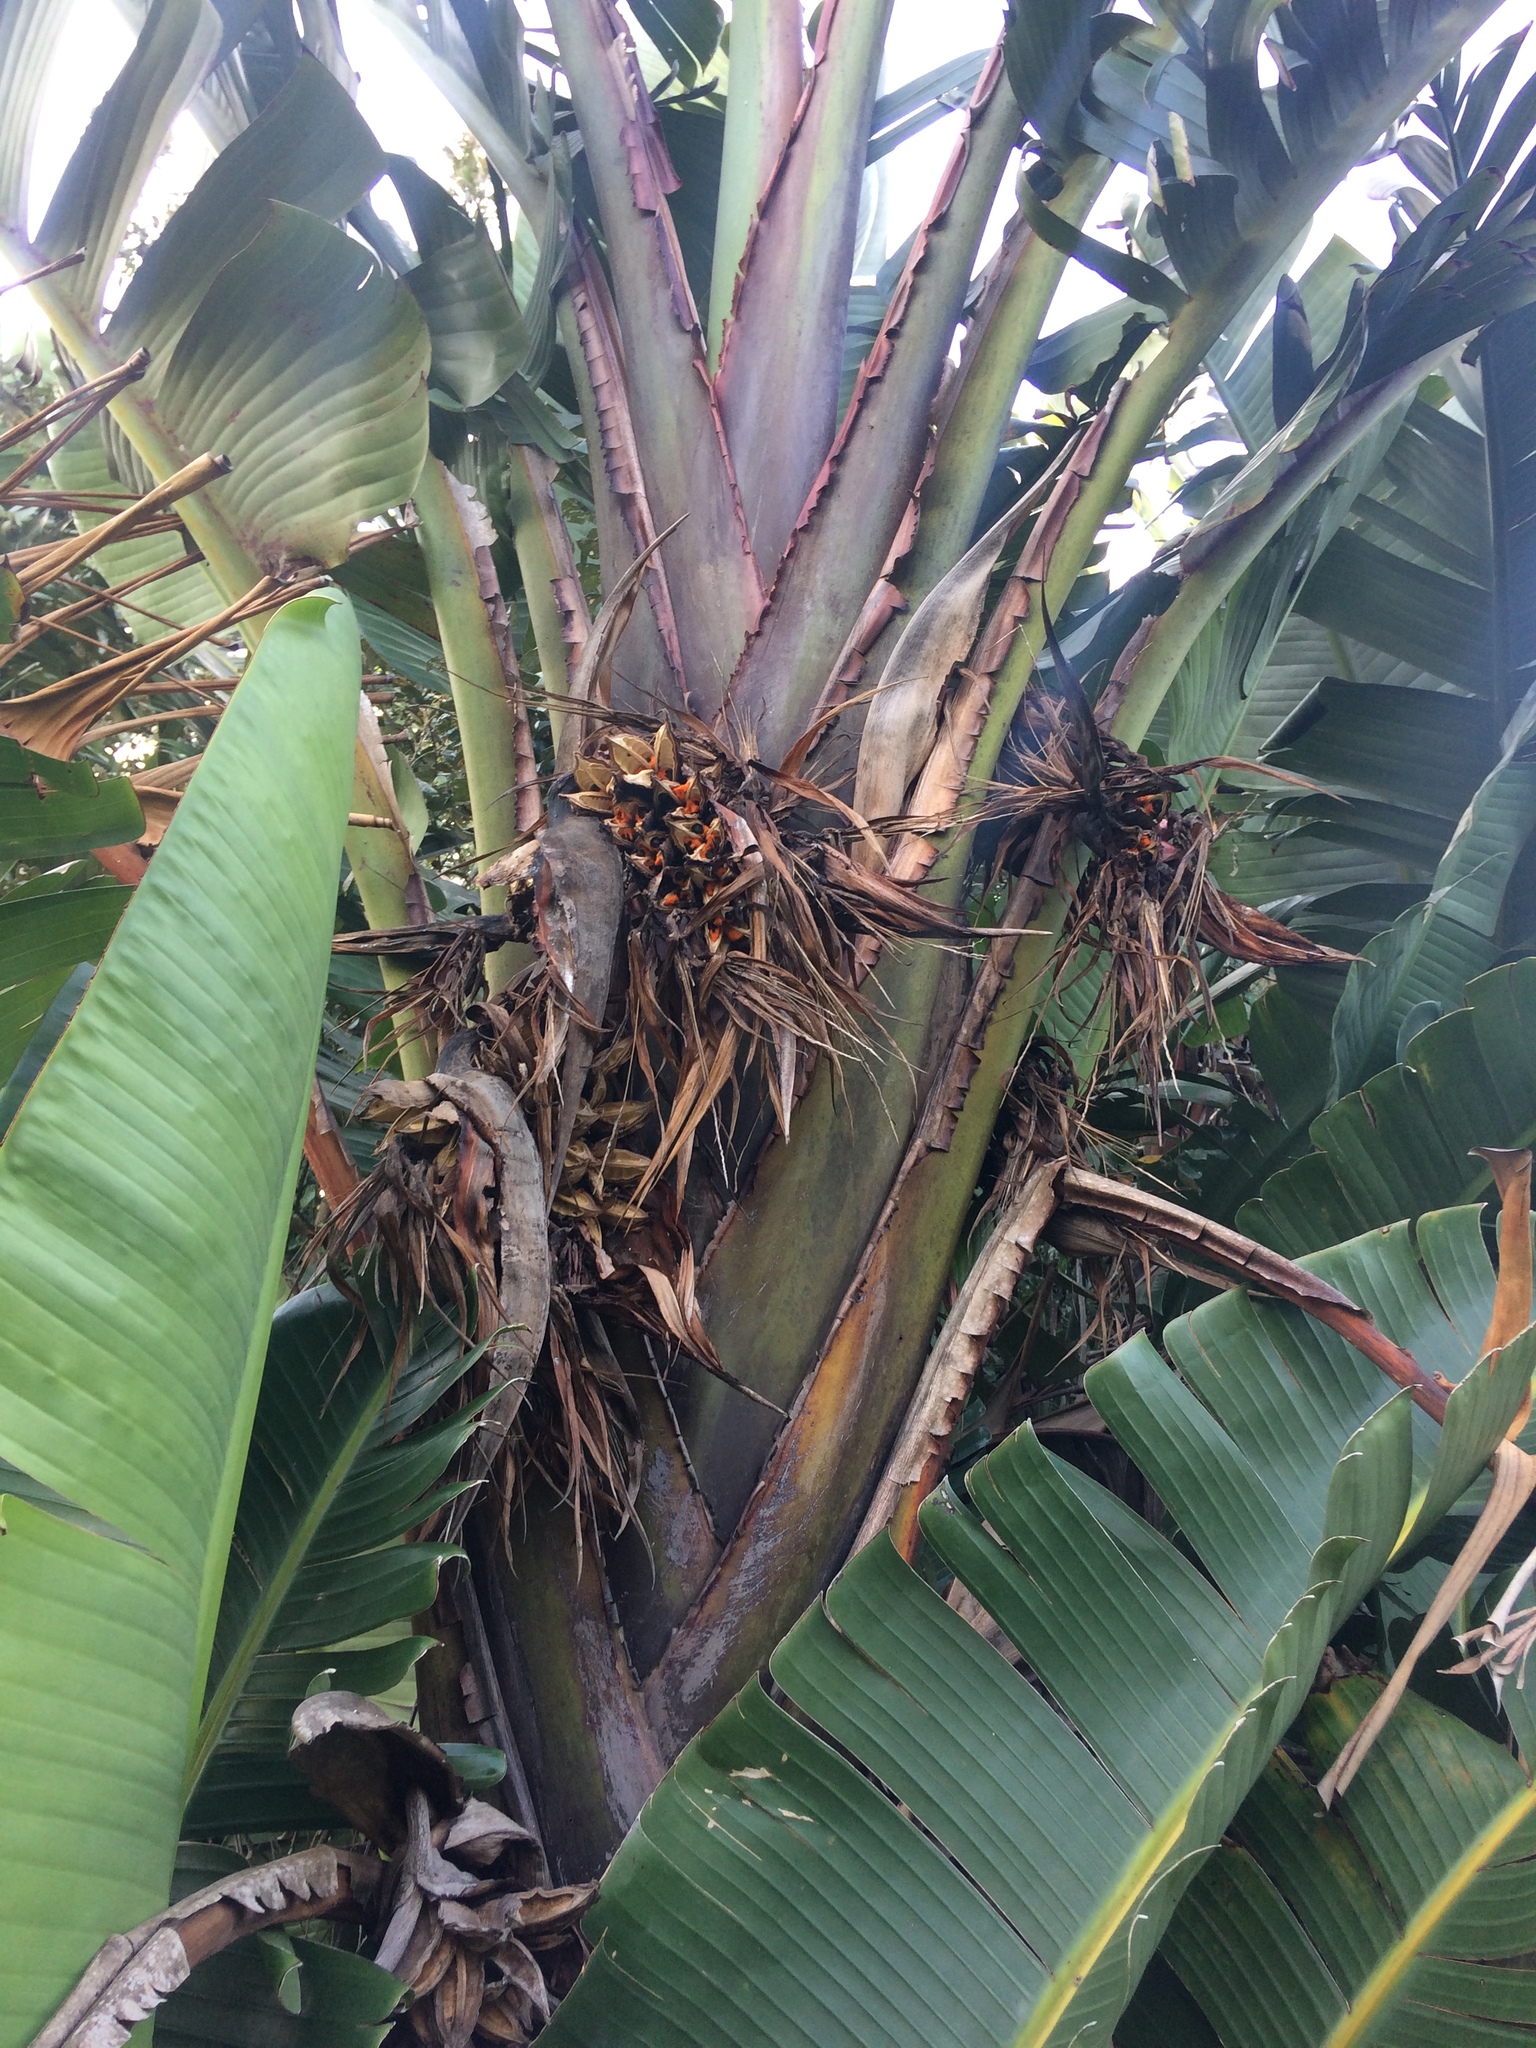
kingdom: Plantae
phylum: Tracheophyta
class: Liliopsida
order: Zingiberales
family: Strelitziaceae
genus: Strelitzia
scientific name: Strelitzia nicolai
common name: Bird-of-paradise tree
